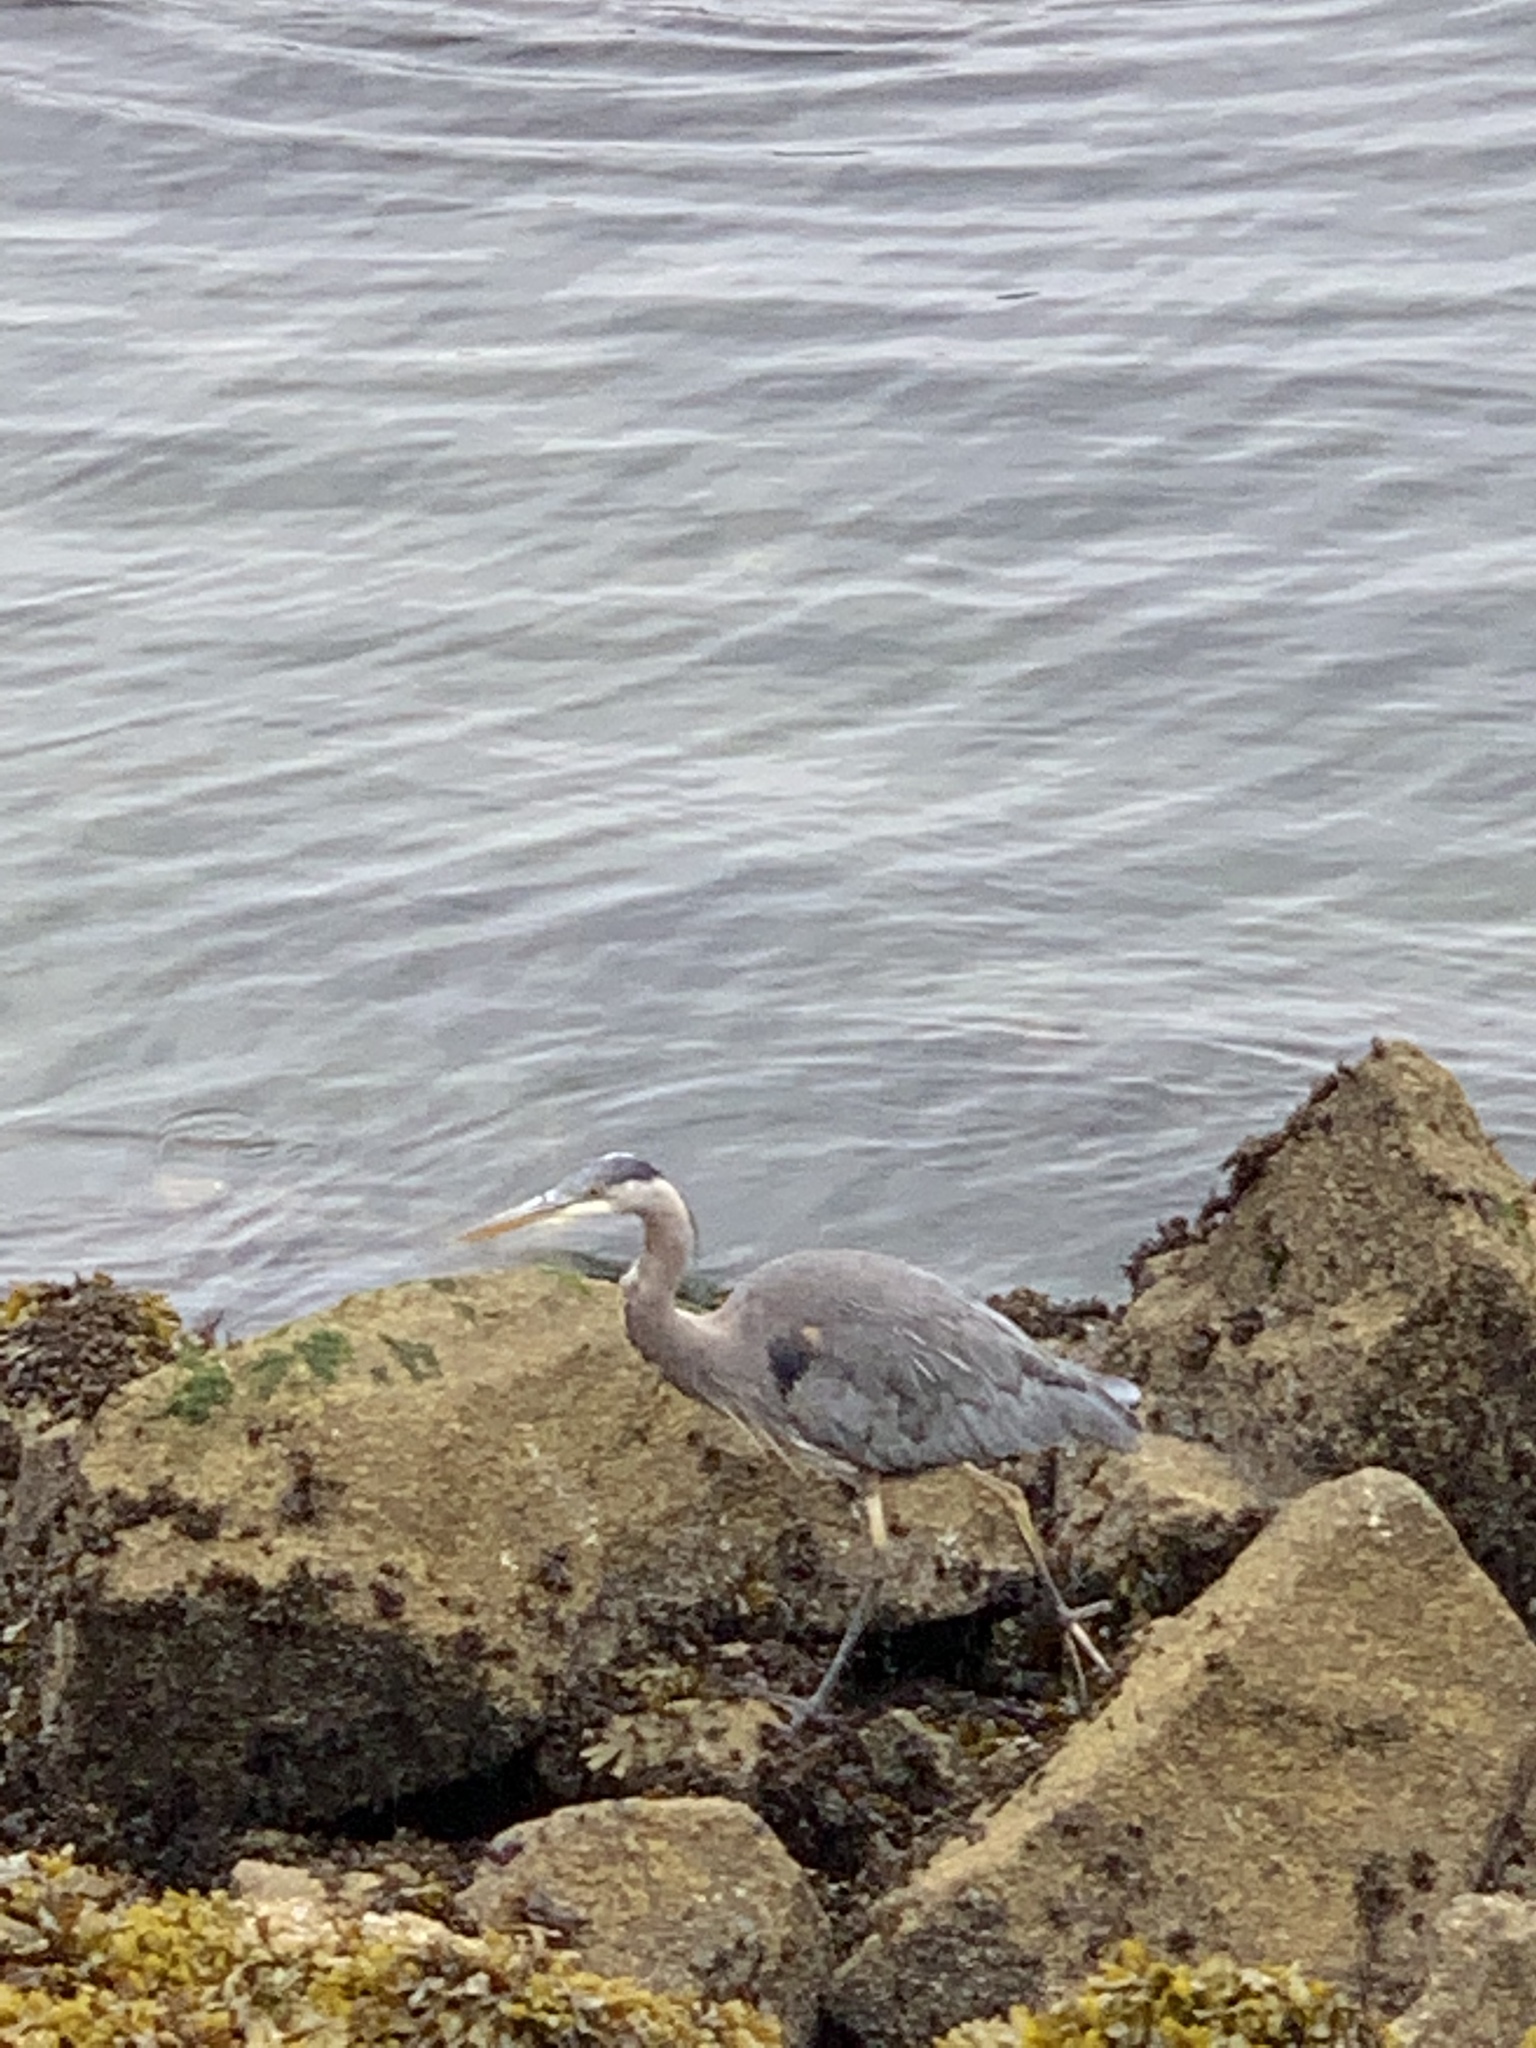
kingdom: Animalia
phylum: Chordata
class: Aves
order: Pelecaniformes
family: Ardeidae
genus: Ardea
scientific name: Ardea herodias
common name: Great blue heron
